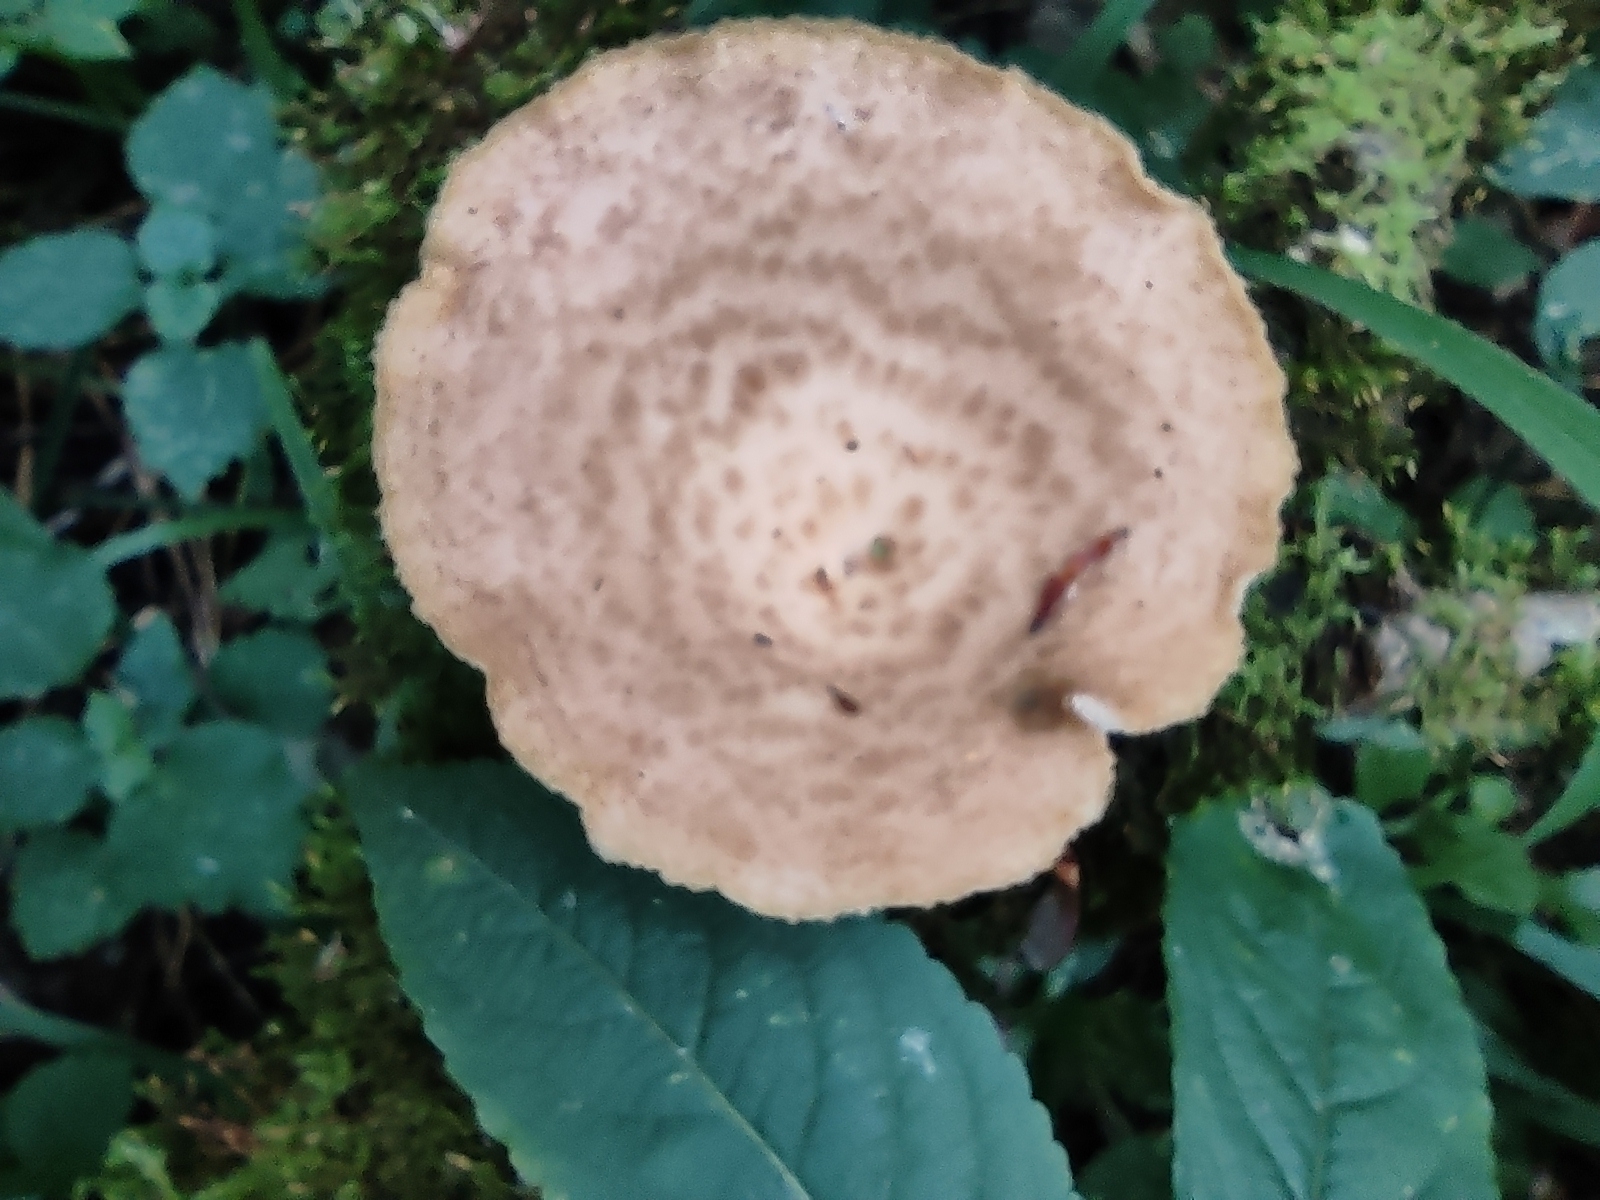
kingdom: Fungi
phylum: Basidiomycota
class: Agaricomycetes
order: Polyporales
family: Polyporaceae
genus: Polyporus
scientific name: Polyporus tuberaster
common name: Tuberous polypore
